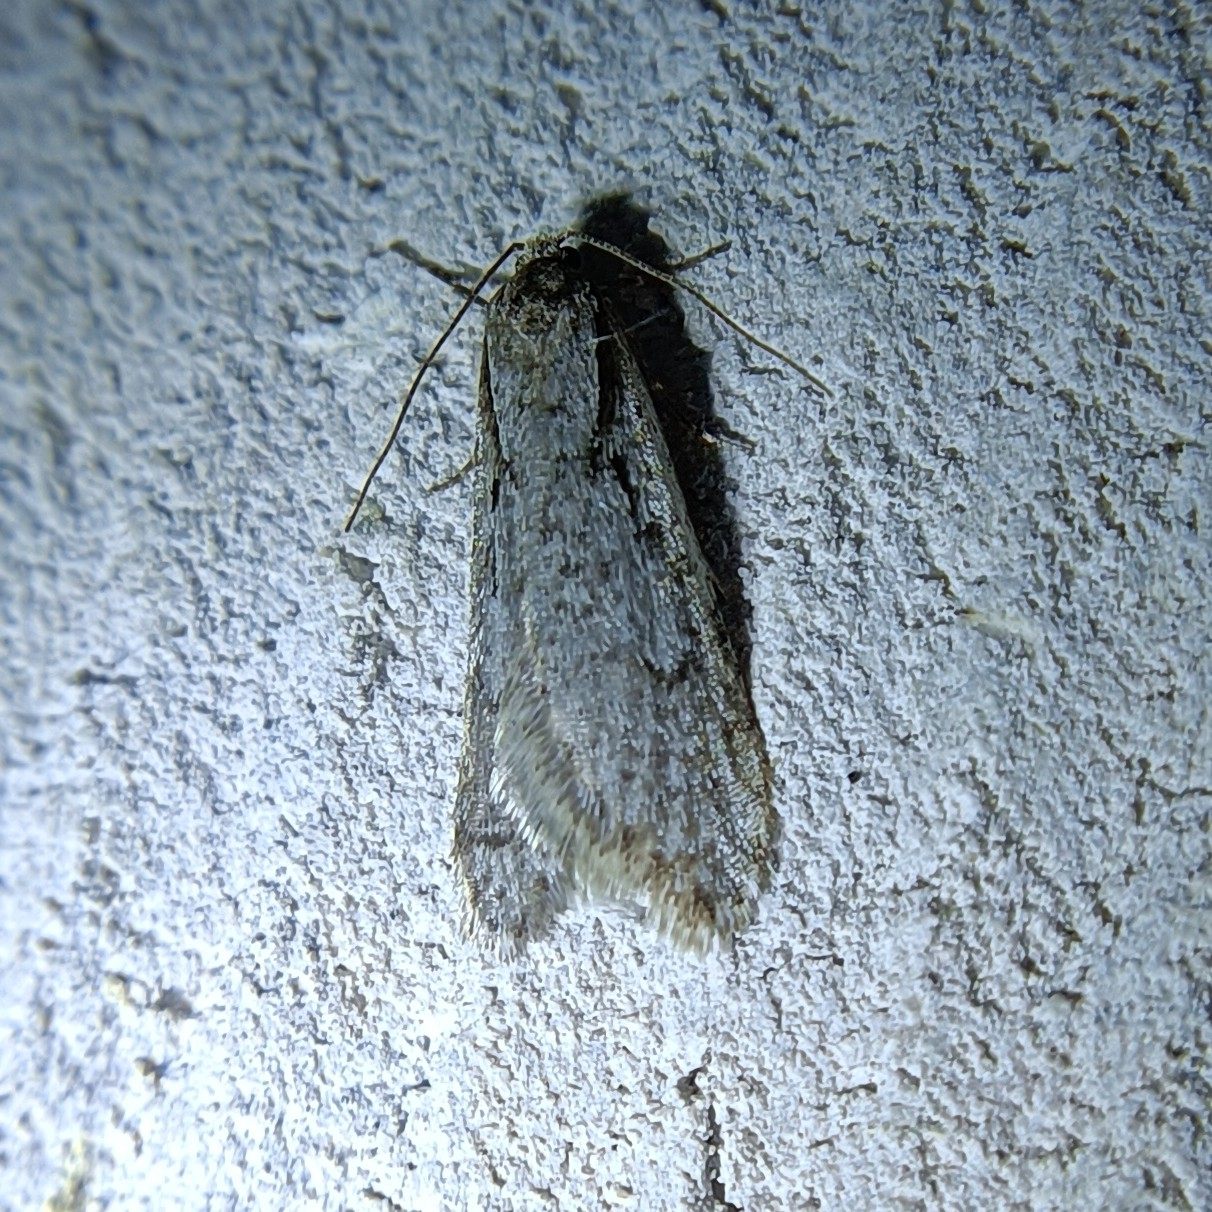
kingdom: Animalia
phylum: Arthropoda
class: Insecta
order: Lepidoptera
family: Depressariidae
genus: Semioscopis
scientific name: Semioscopis avellanella
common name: Early flat-body
